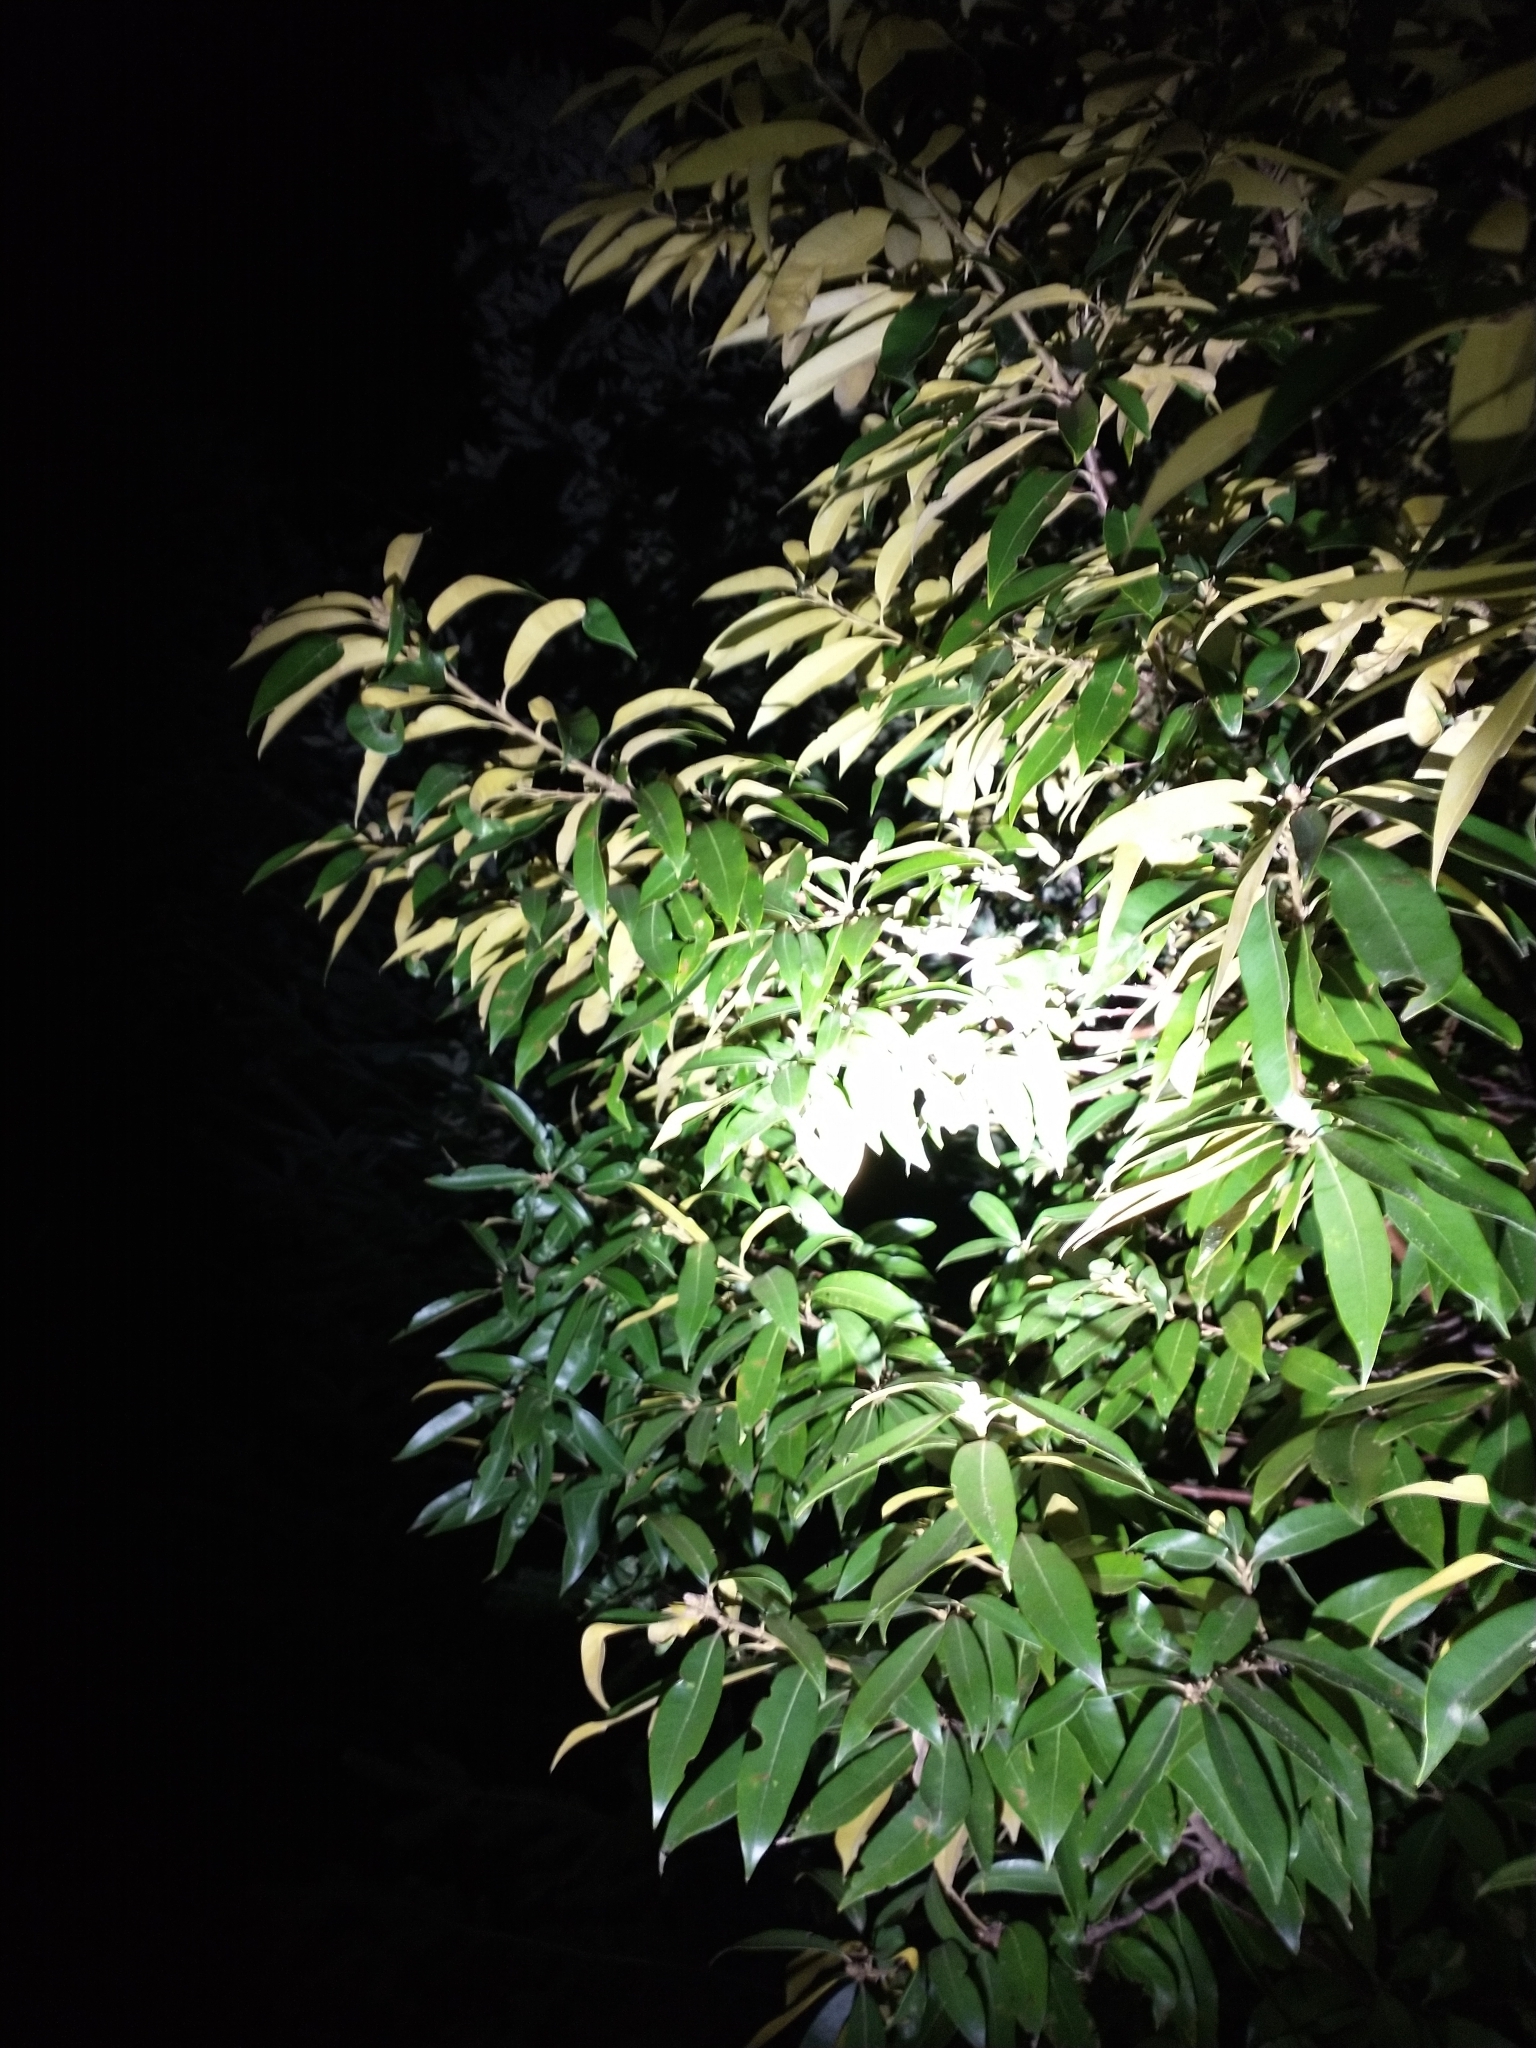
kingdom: Plantae
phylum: Tracheophyta
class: Magnoliopsida
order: Fagales
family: Fagaceae
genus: Chrysolepis
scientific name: Chrysolepis chrysophylla
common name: Giant chinquapin
